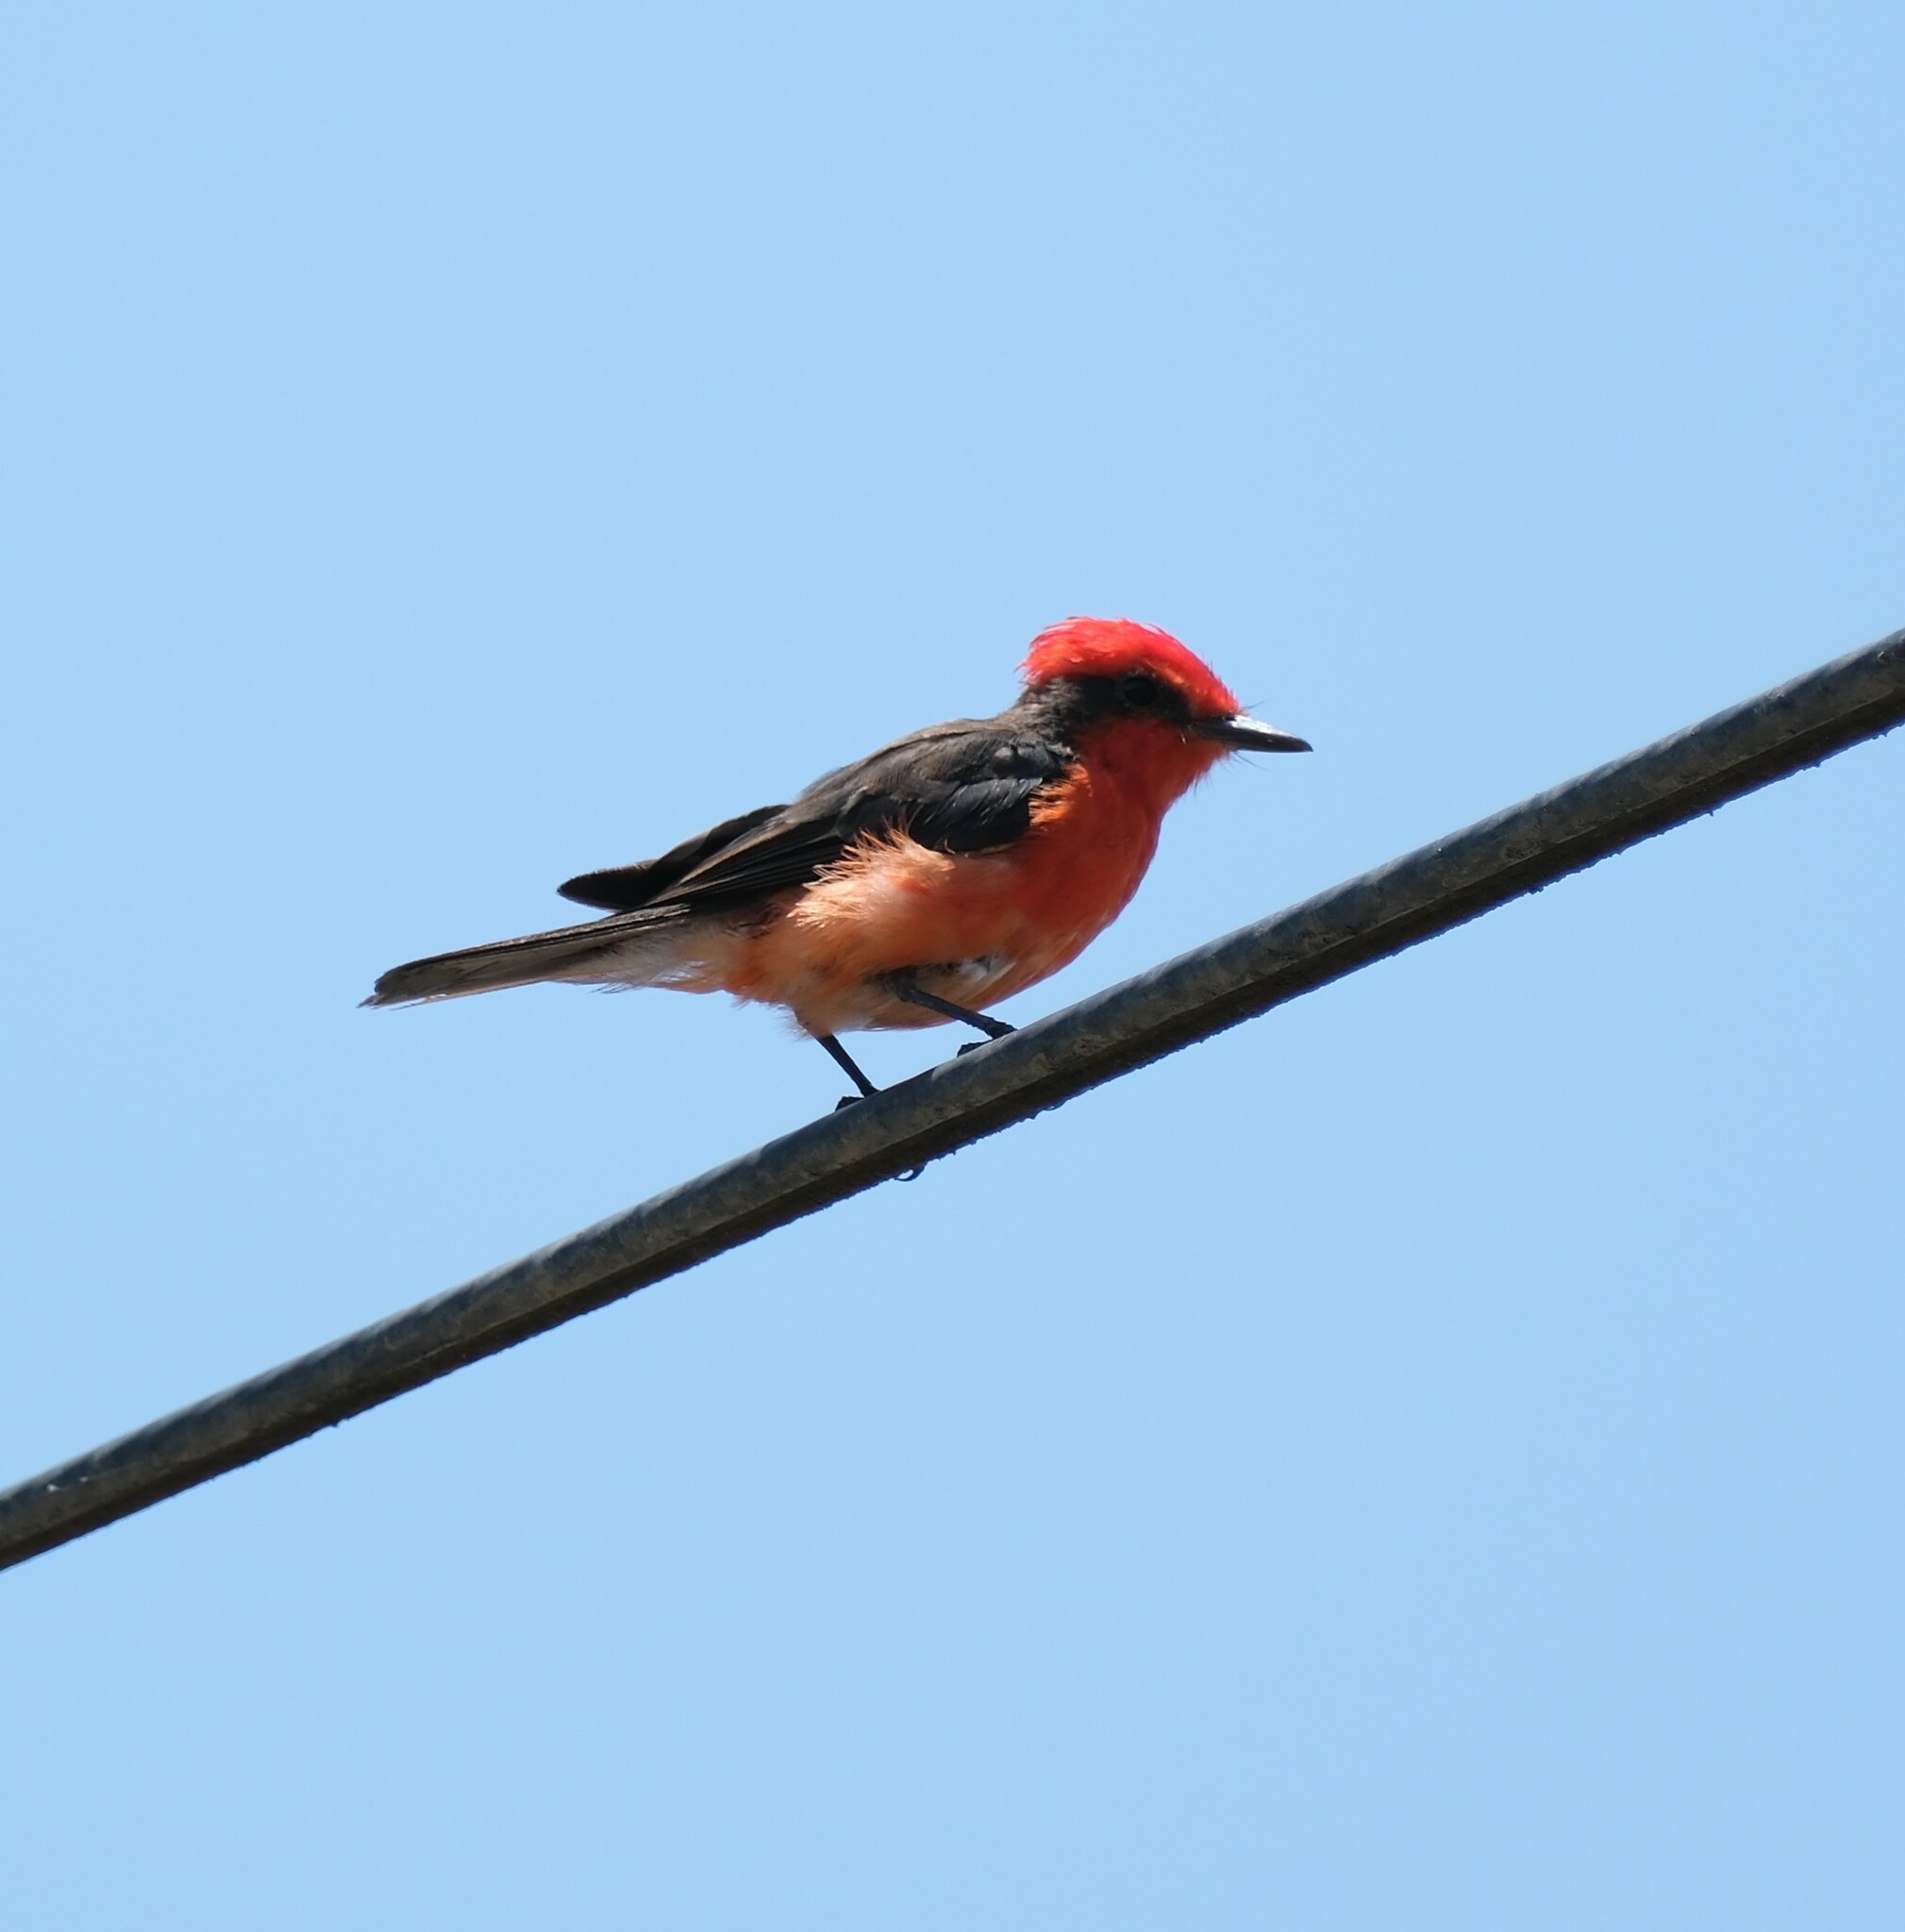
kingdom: Animalia
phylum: Chordata
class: Aves
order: Passeriformes
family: Tyrannidae
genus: Pyrocephalus
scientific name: Pyrocephalus rubinus
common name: Vermilion flycatcher
